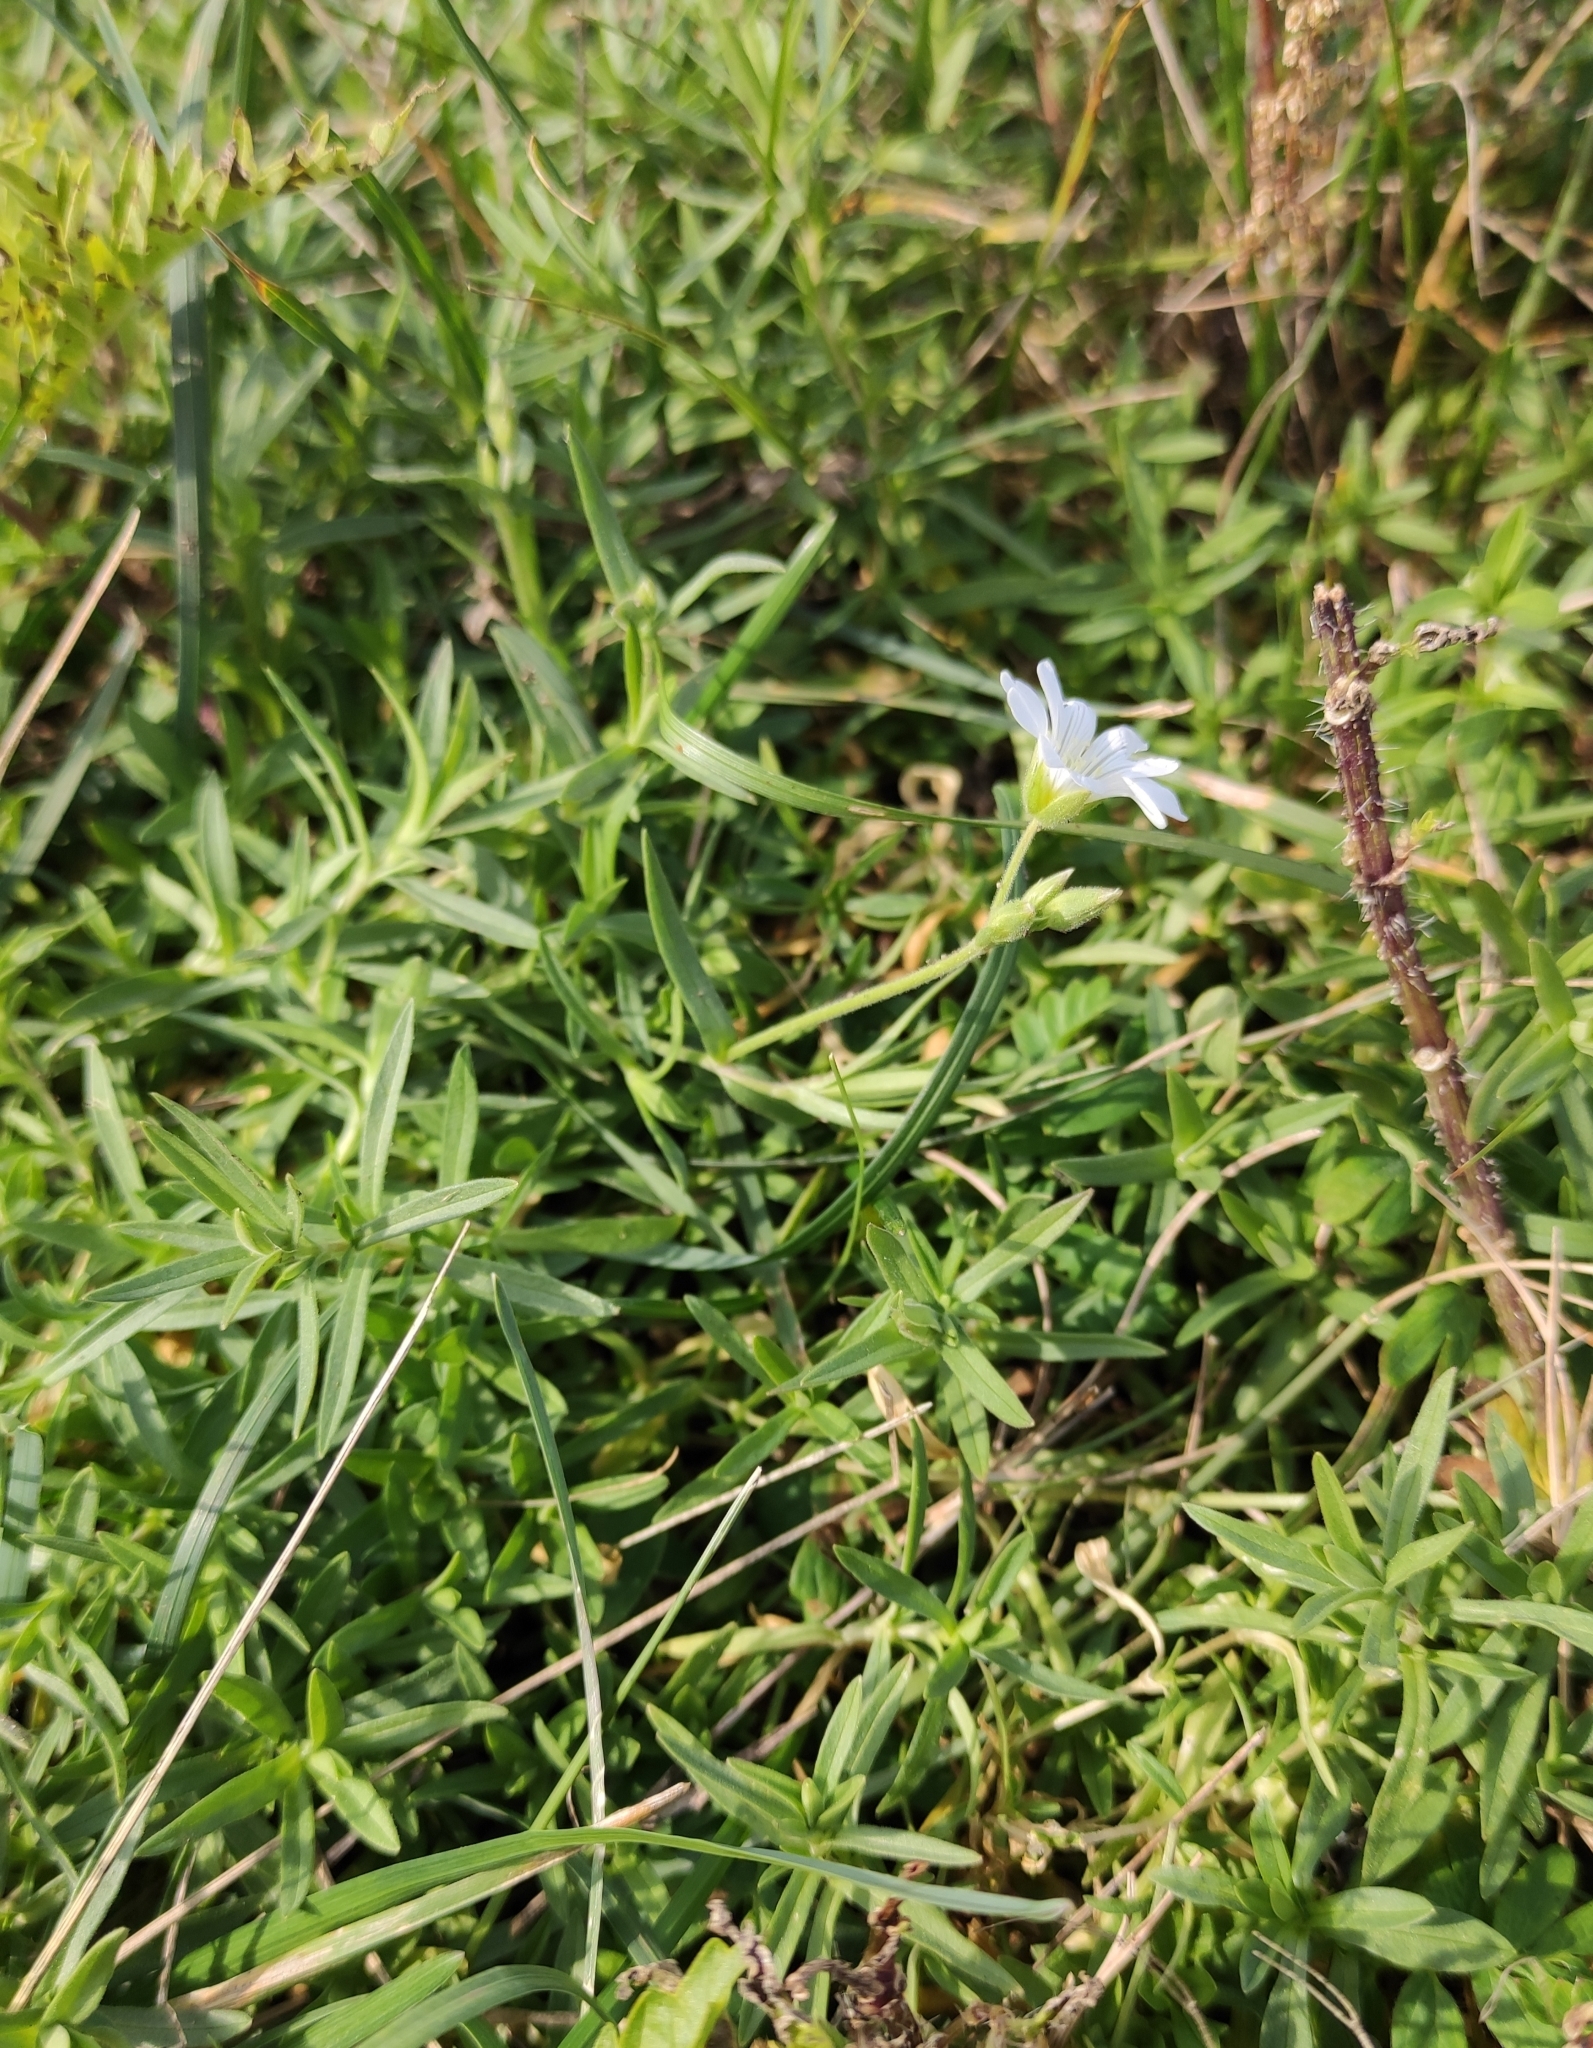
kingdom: Plantae
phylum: Tracheophyta
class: Magnoliopsida
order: Caryophyllales
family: Caryophyllaceae
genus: Cerastium
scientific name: Cerastium arvense
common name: Field mouse-ear
